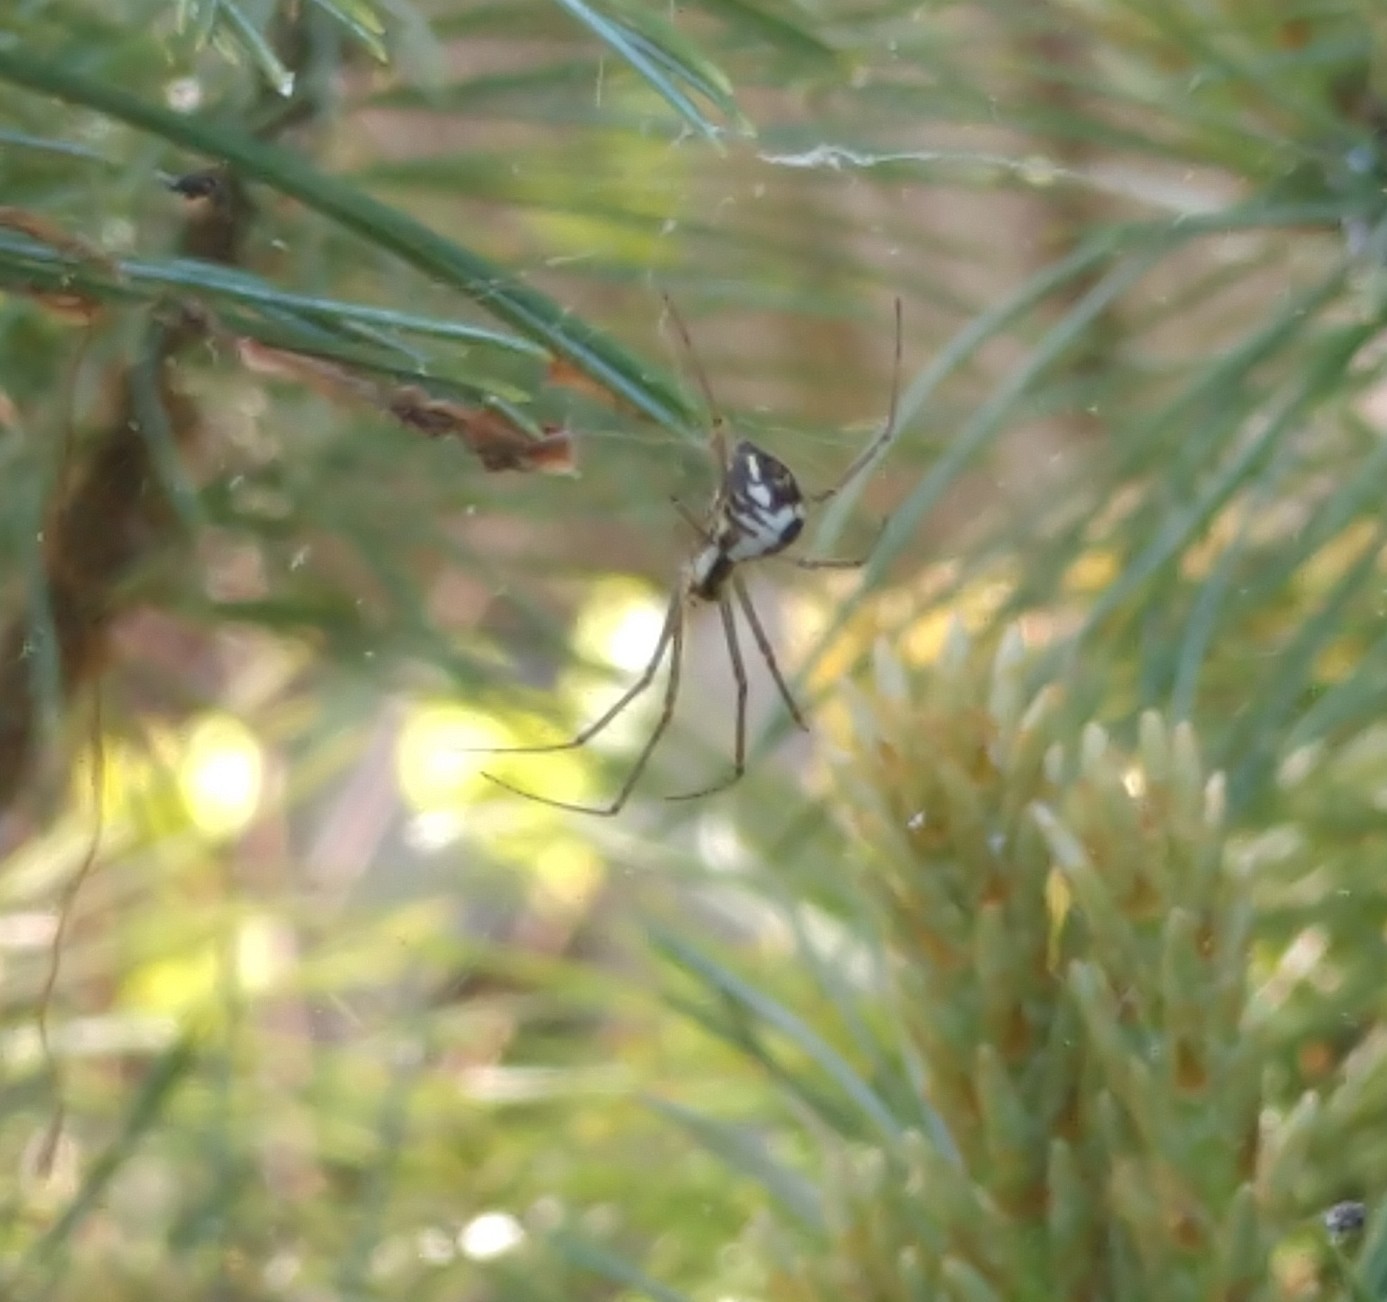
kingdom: Animalia
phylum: Arthropoda
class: Arachnida
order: Araneae
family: Linyphiidae
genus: Neriene
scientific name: Neriene radiata
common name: Filmy dome spider
